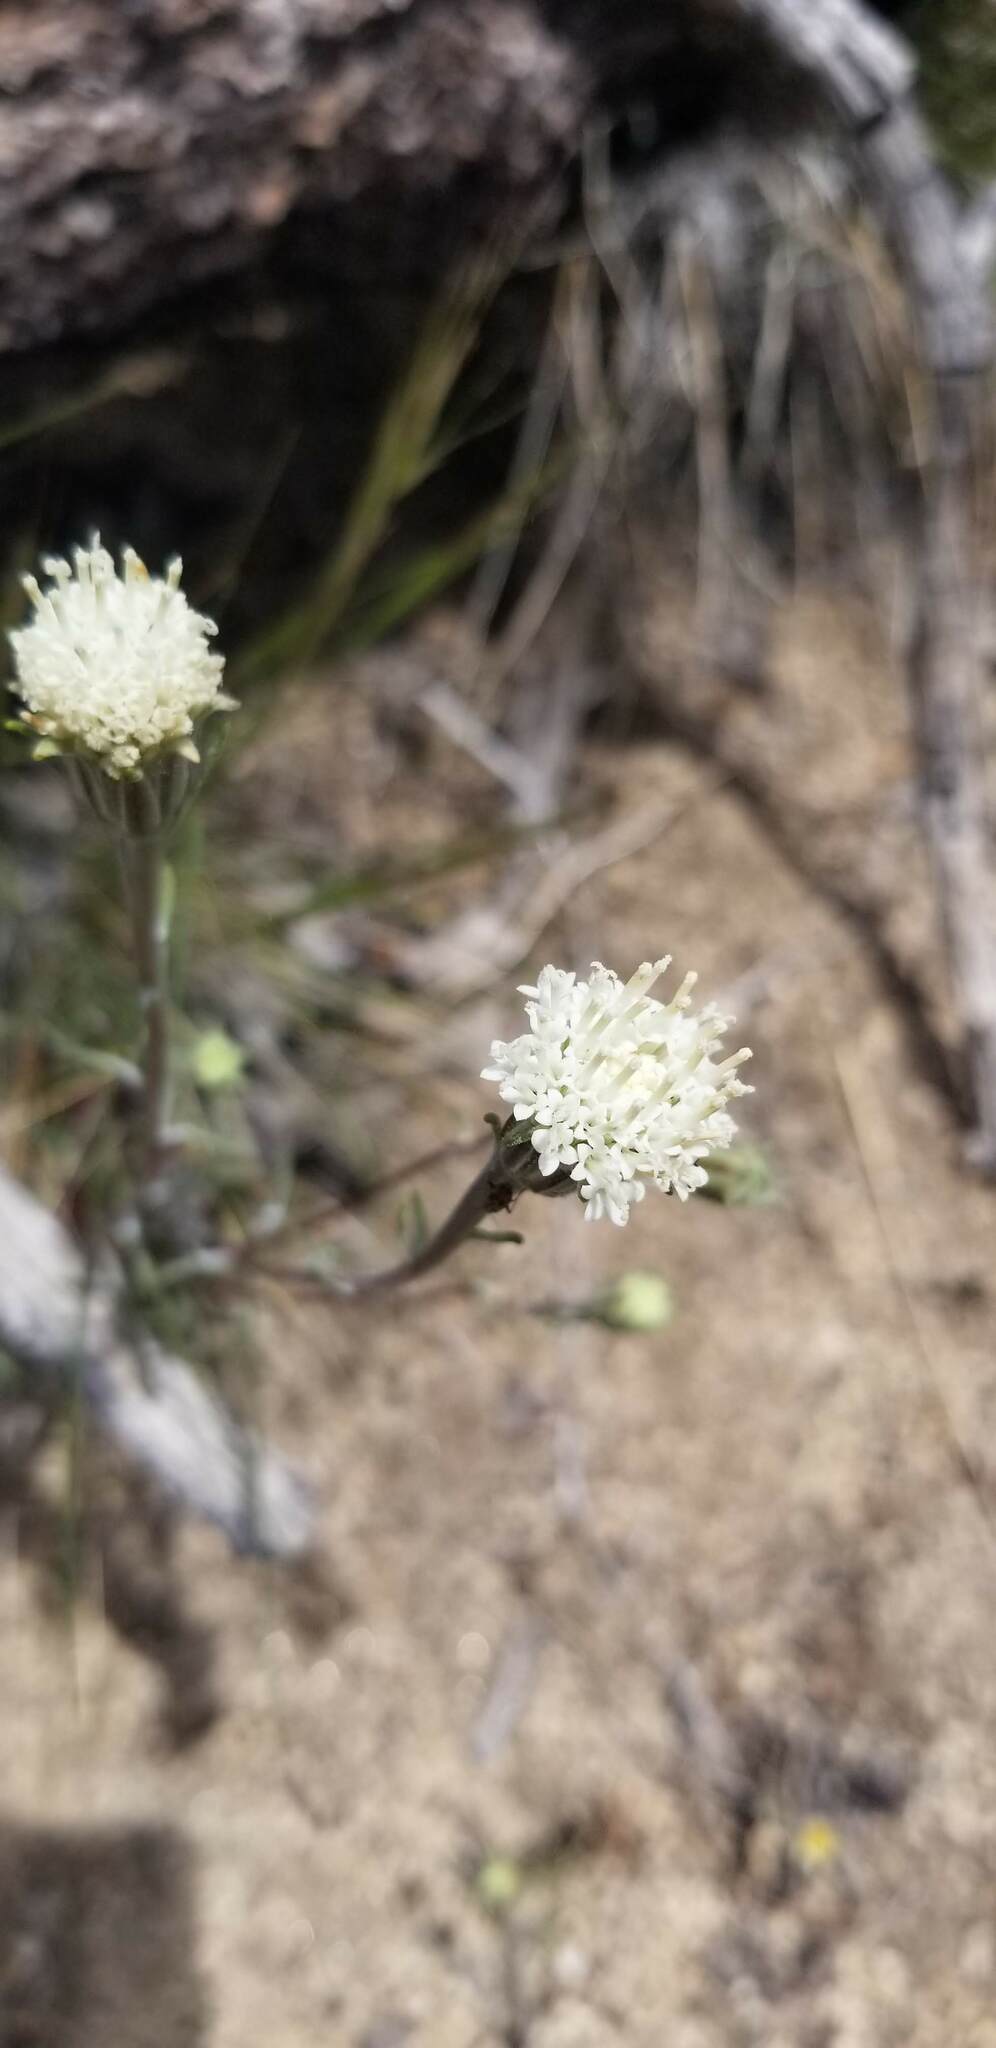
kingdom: Plantae
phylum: Tracheophyta
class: Magnoliopsida
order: Asterales
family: Asteraceae
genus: Chaenactis
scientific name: Chaenactis xantiana
